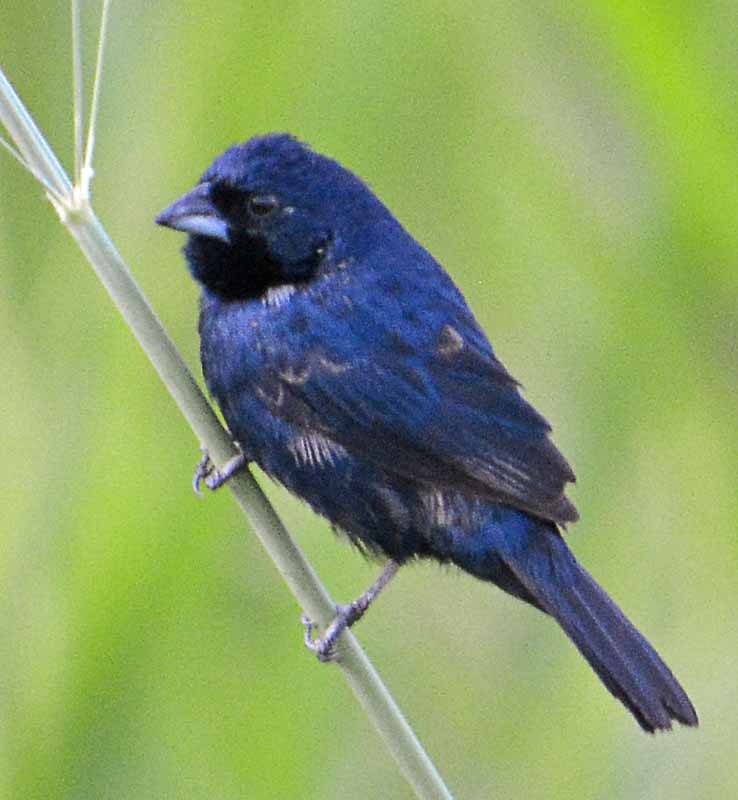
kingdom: Animalia
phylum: Chordata
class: Aves
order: Passeriformes
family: Thraupidae
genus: Volatinia
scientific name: Volatinia jacarina
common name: Blue-black grassquit
